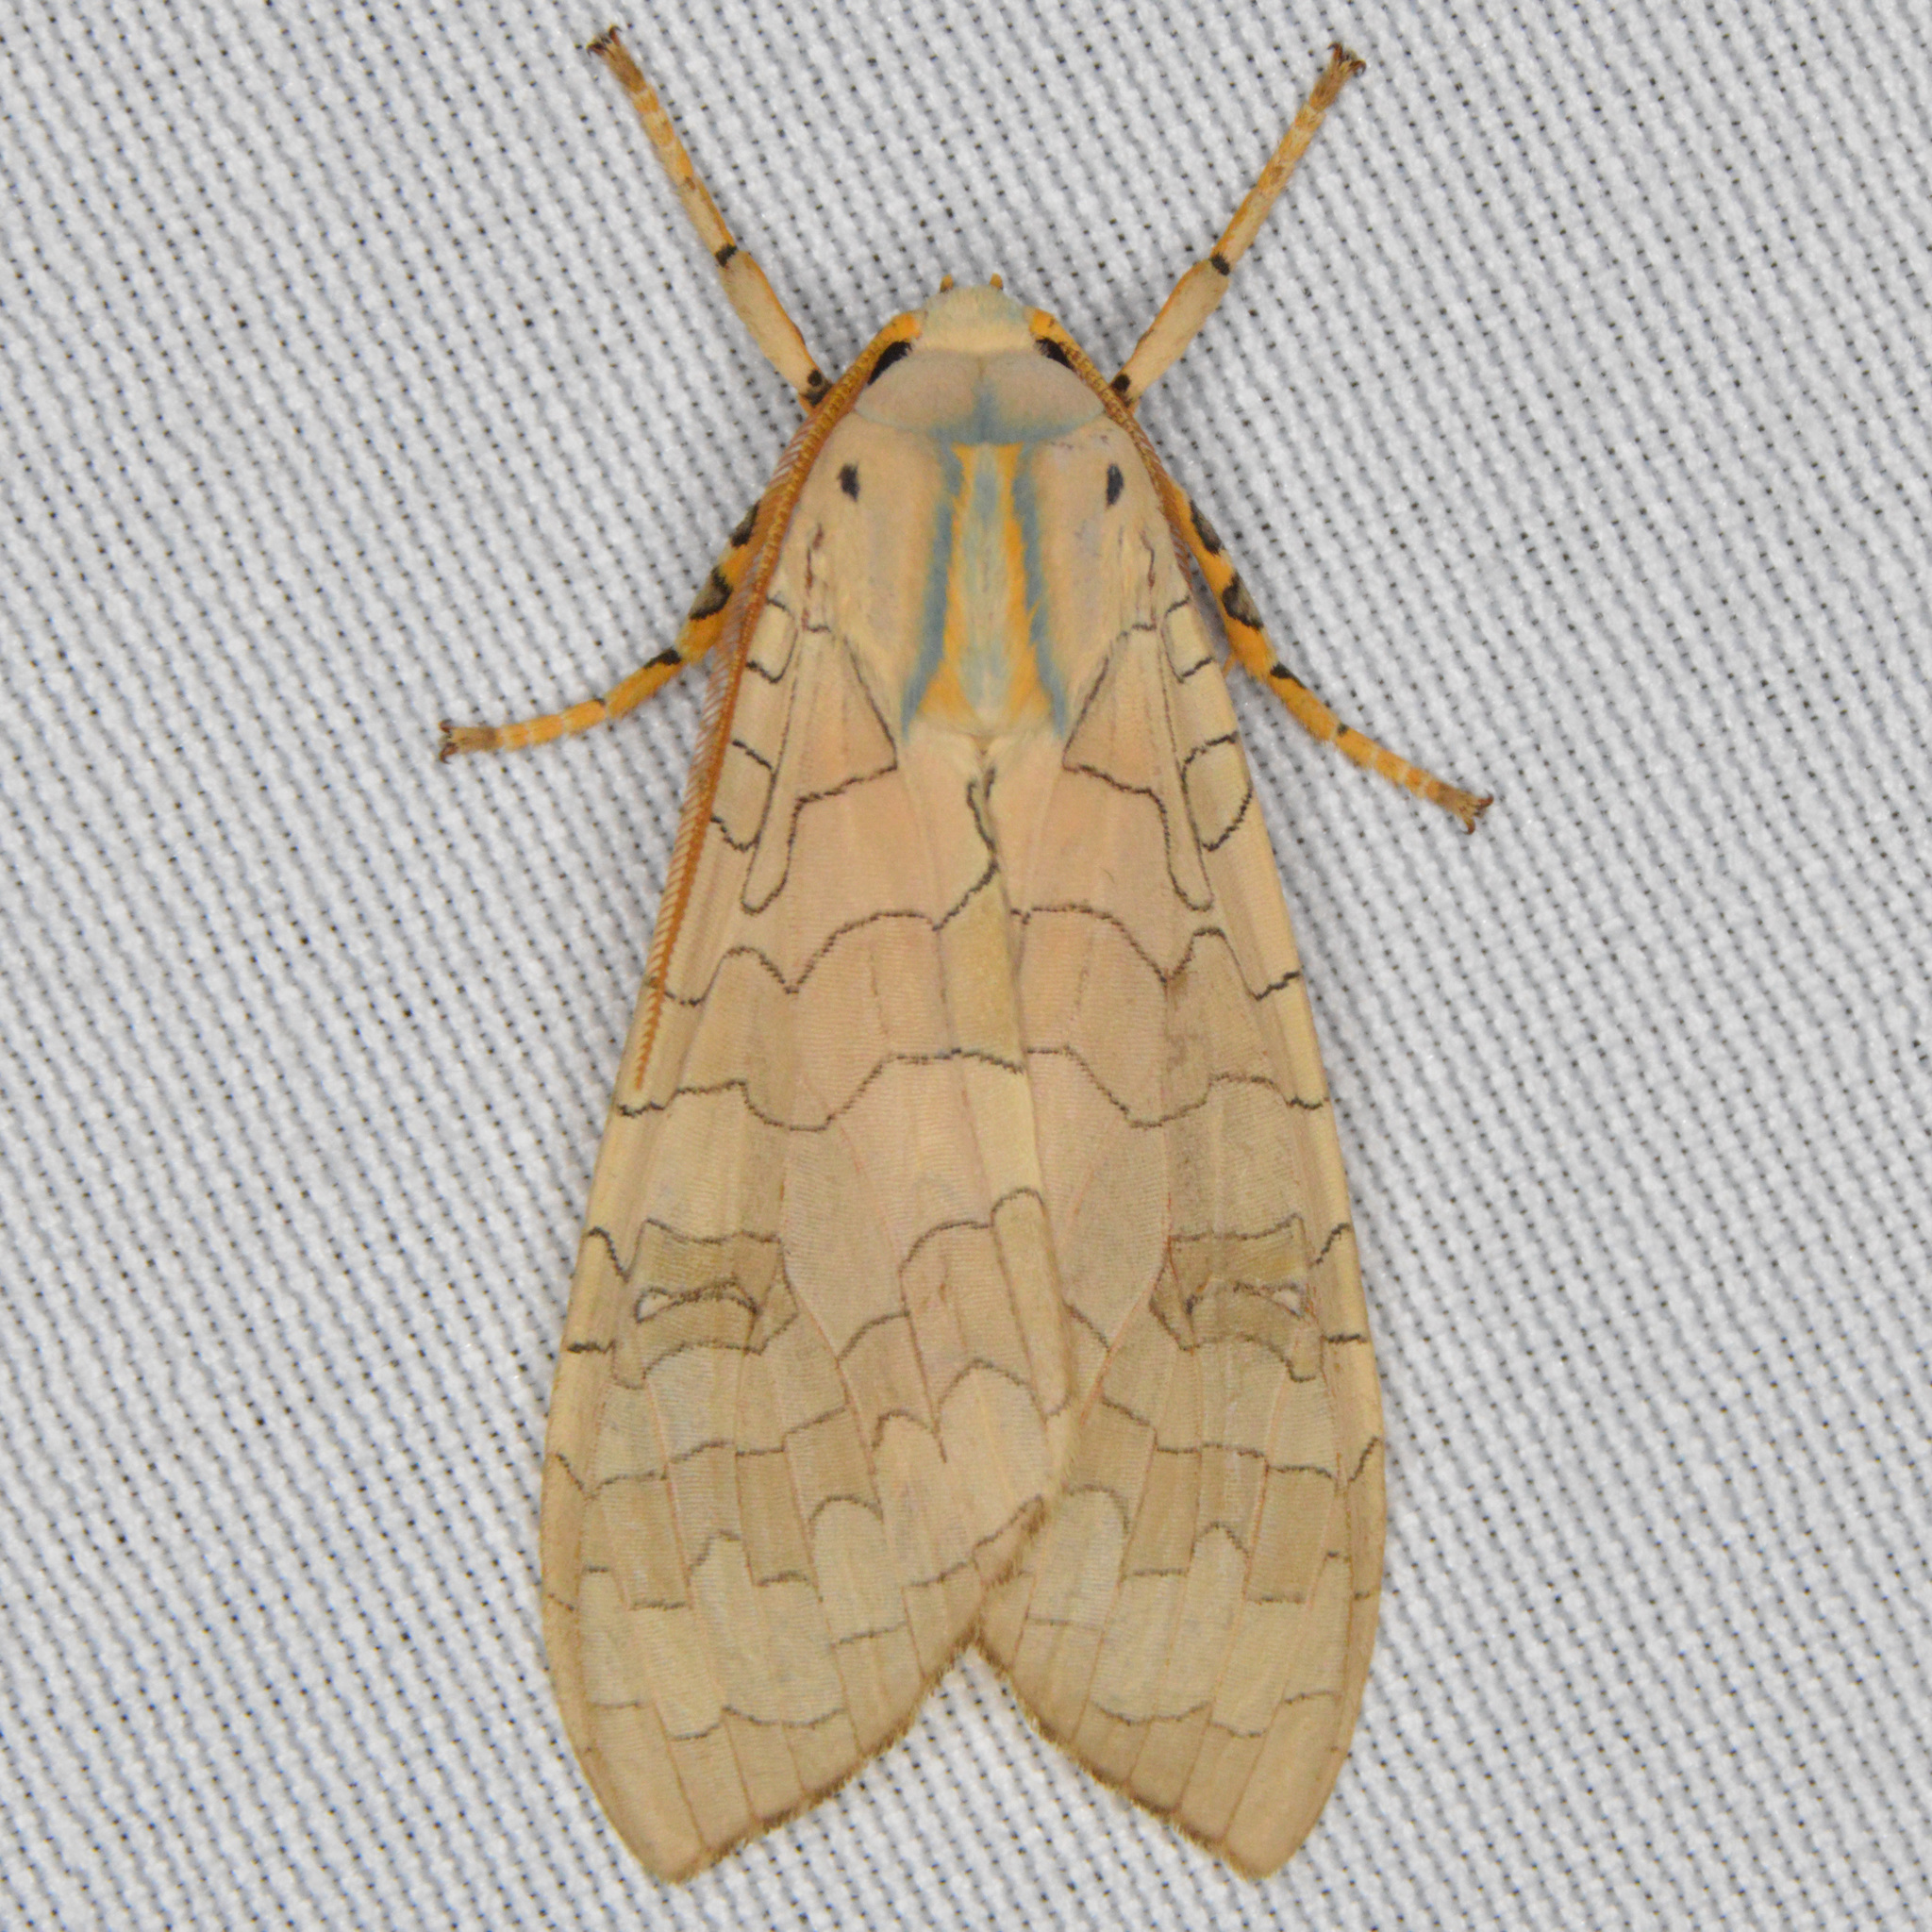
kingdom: Animalia
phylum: Arthropoda
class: Insecta
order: Lepidoptera
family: Erebidae
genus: Halysidota
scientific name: Halysidota
